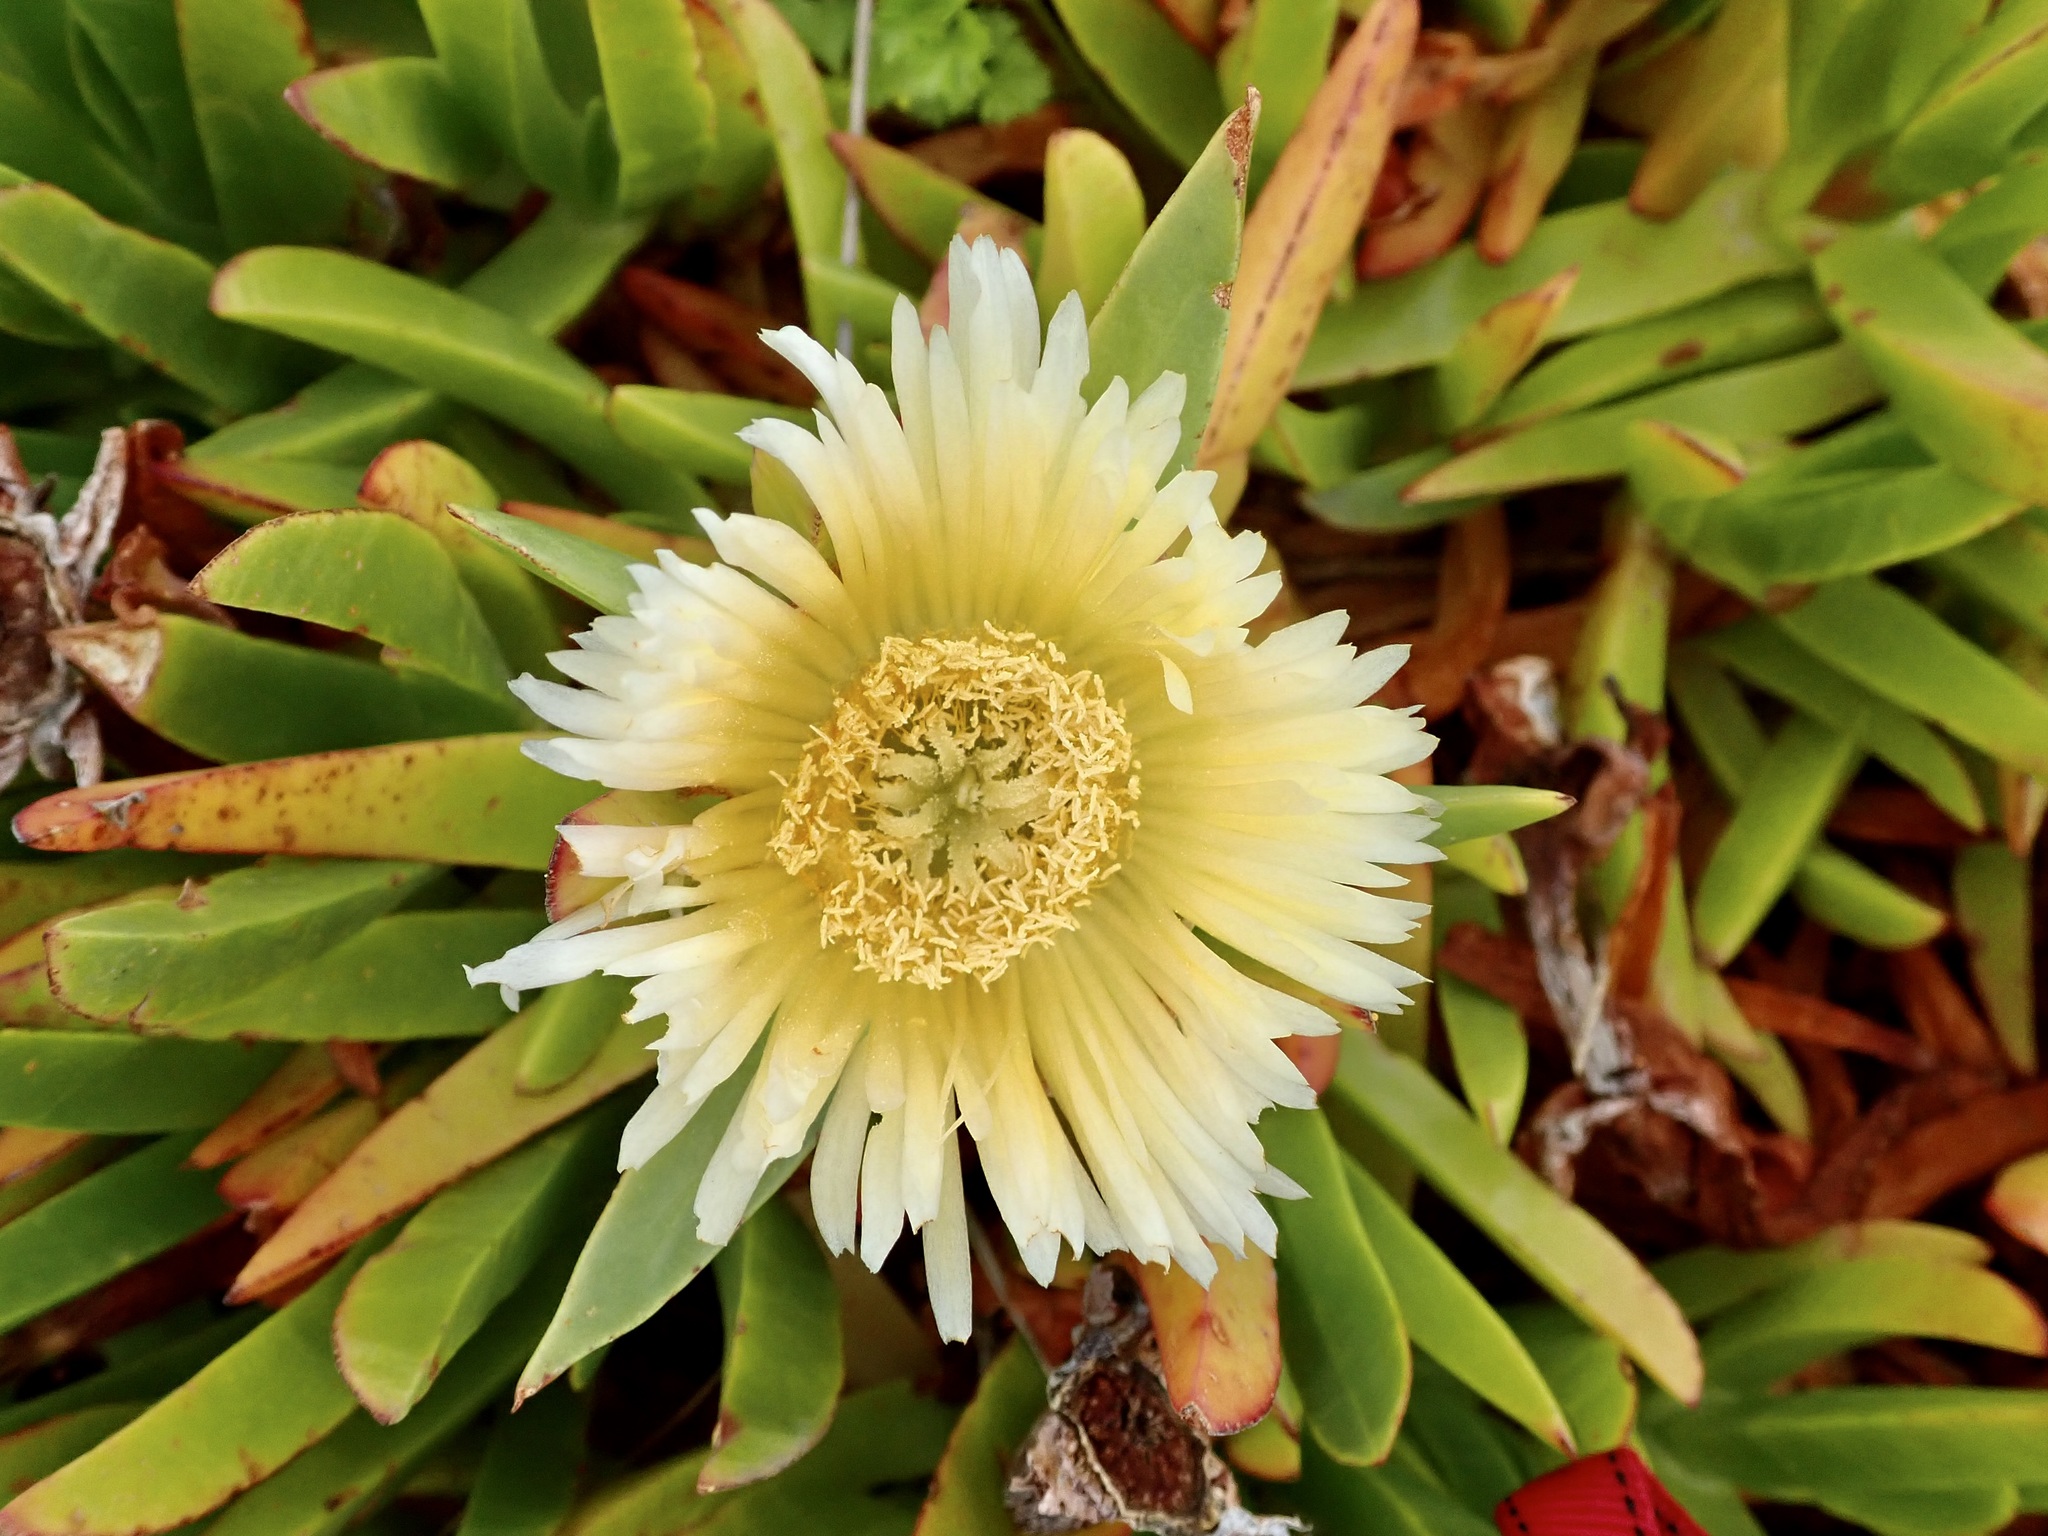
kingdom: Plantae
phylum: Tracheophyta
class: Magnoliopsida
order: Caryophyllales
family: Aizoaceae
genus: Carpobrotus
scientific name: Carpobrotus edulis
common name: Hottentot-fig
